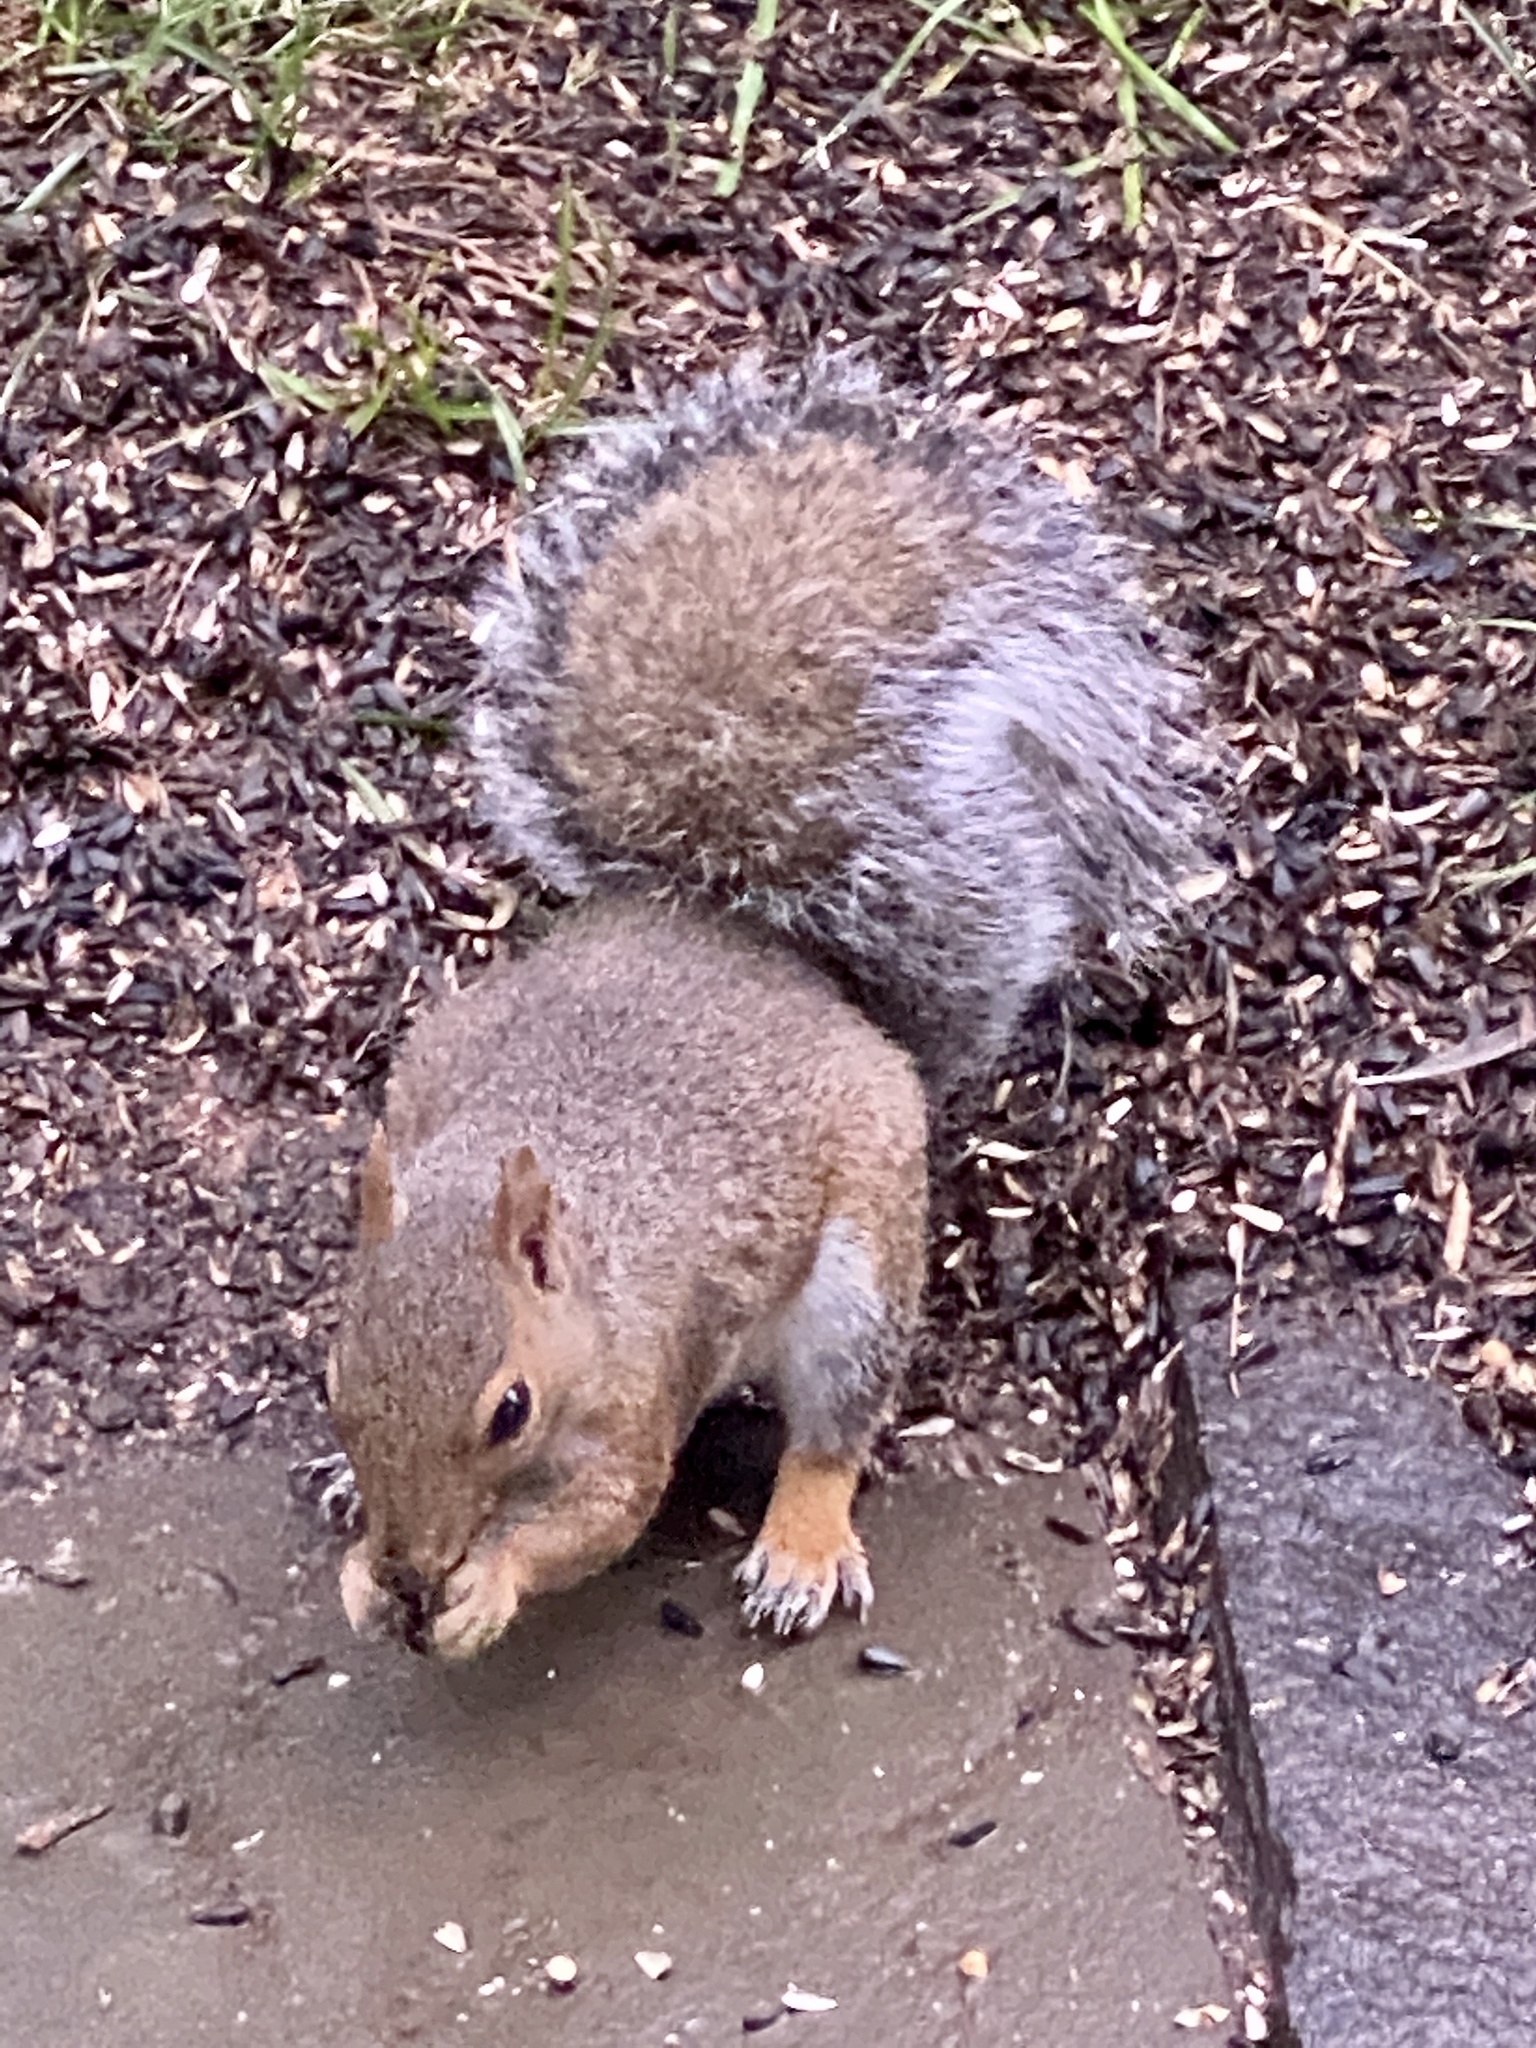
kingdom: Animalia
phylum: Chordata
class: Mammalia
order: Rodentia
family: Sciuridae
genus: Sciurus
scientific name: Sciurus carolinensis
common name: Eastern gray squirrel
